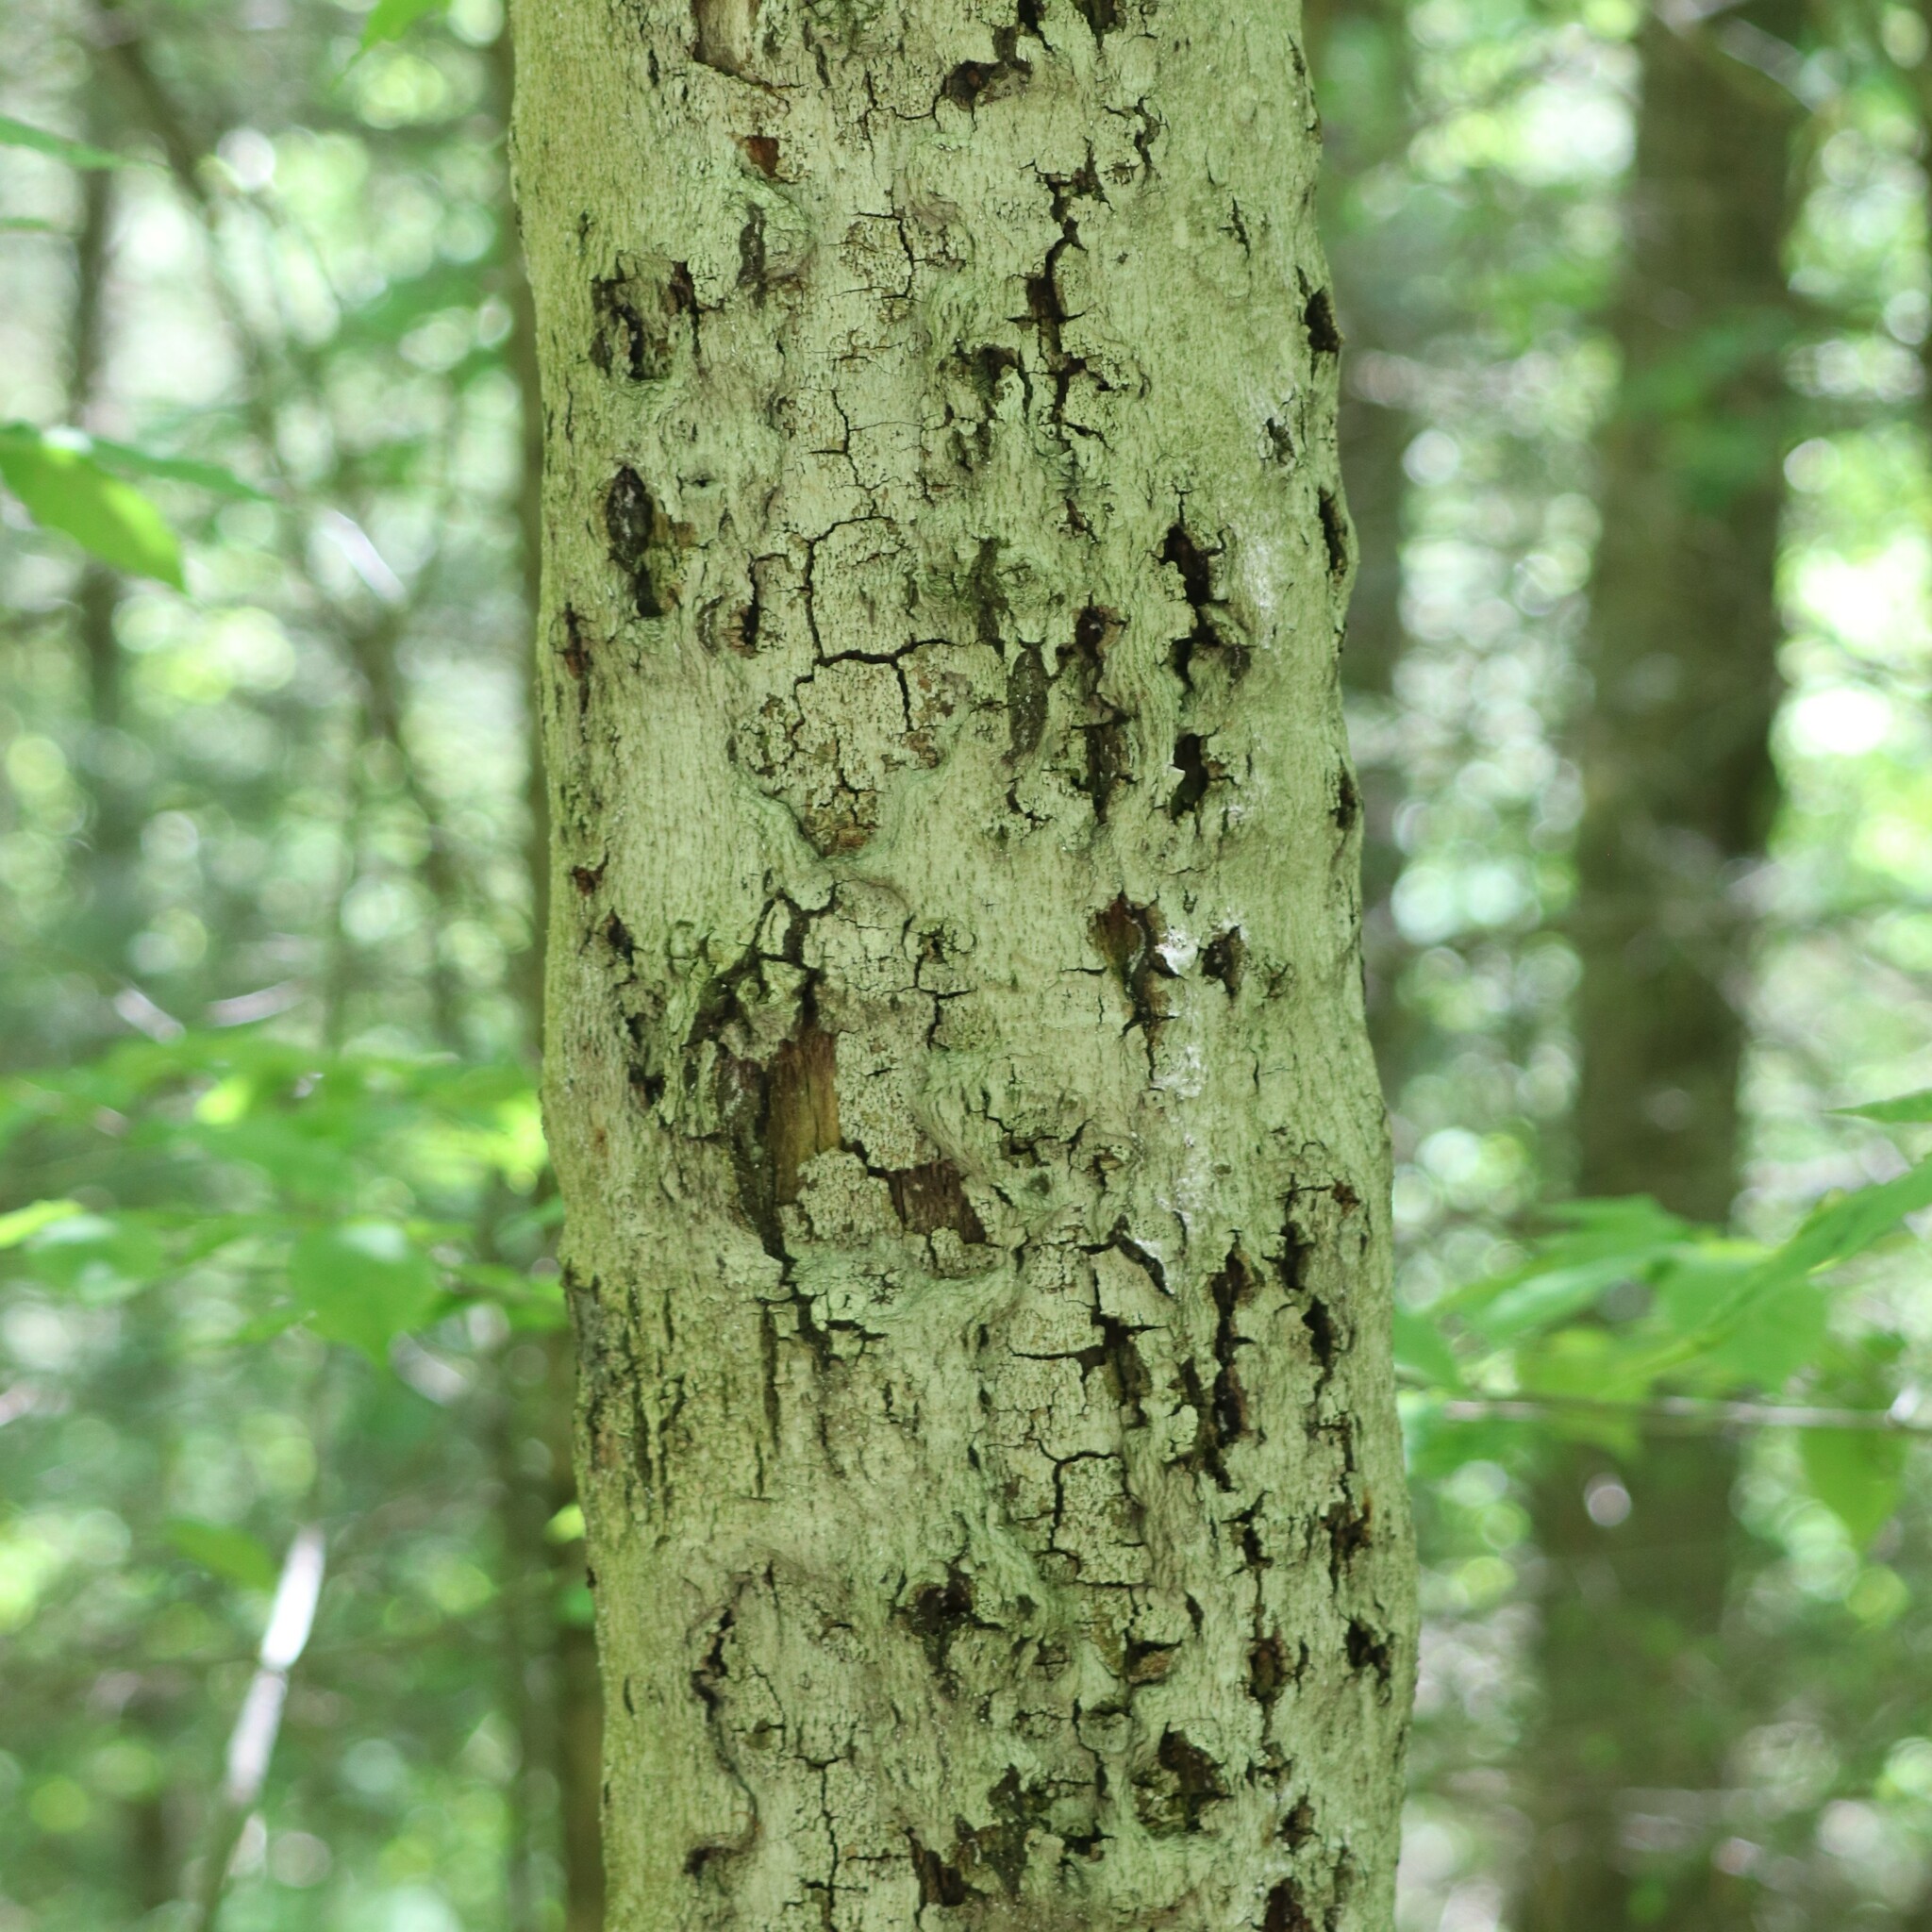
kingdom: Fungi
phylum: Ascomycota
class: Sordariomycetes
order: Hypocreales
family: Nectriaceae
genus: Neonectria
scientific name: Neonectria faginata
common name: Beech bark canker
